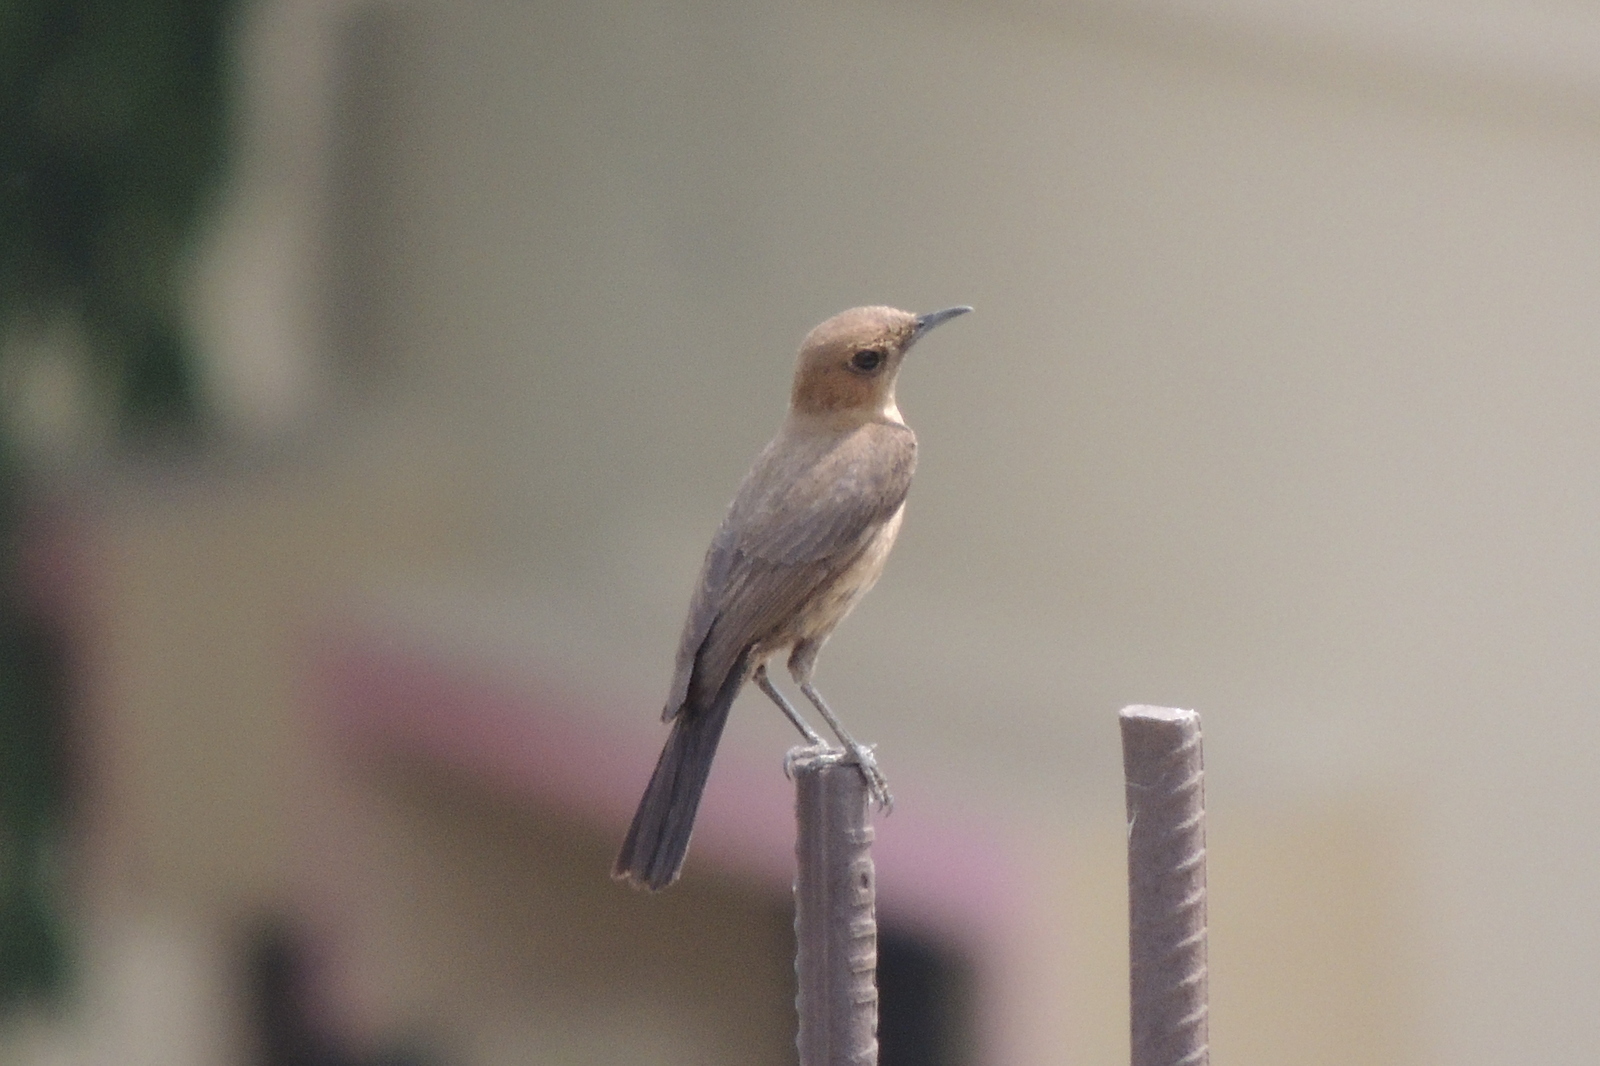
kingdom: Animalia
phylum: Chordata
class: Aves
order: Passeriformes
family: Muscicapidae
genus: Oenanthe
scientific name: Oenanthe fusca
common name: Brown rock chat
